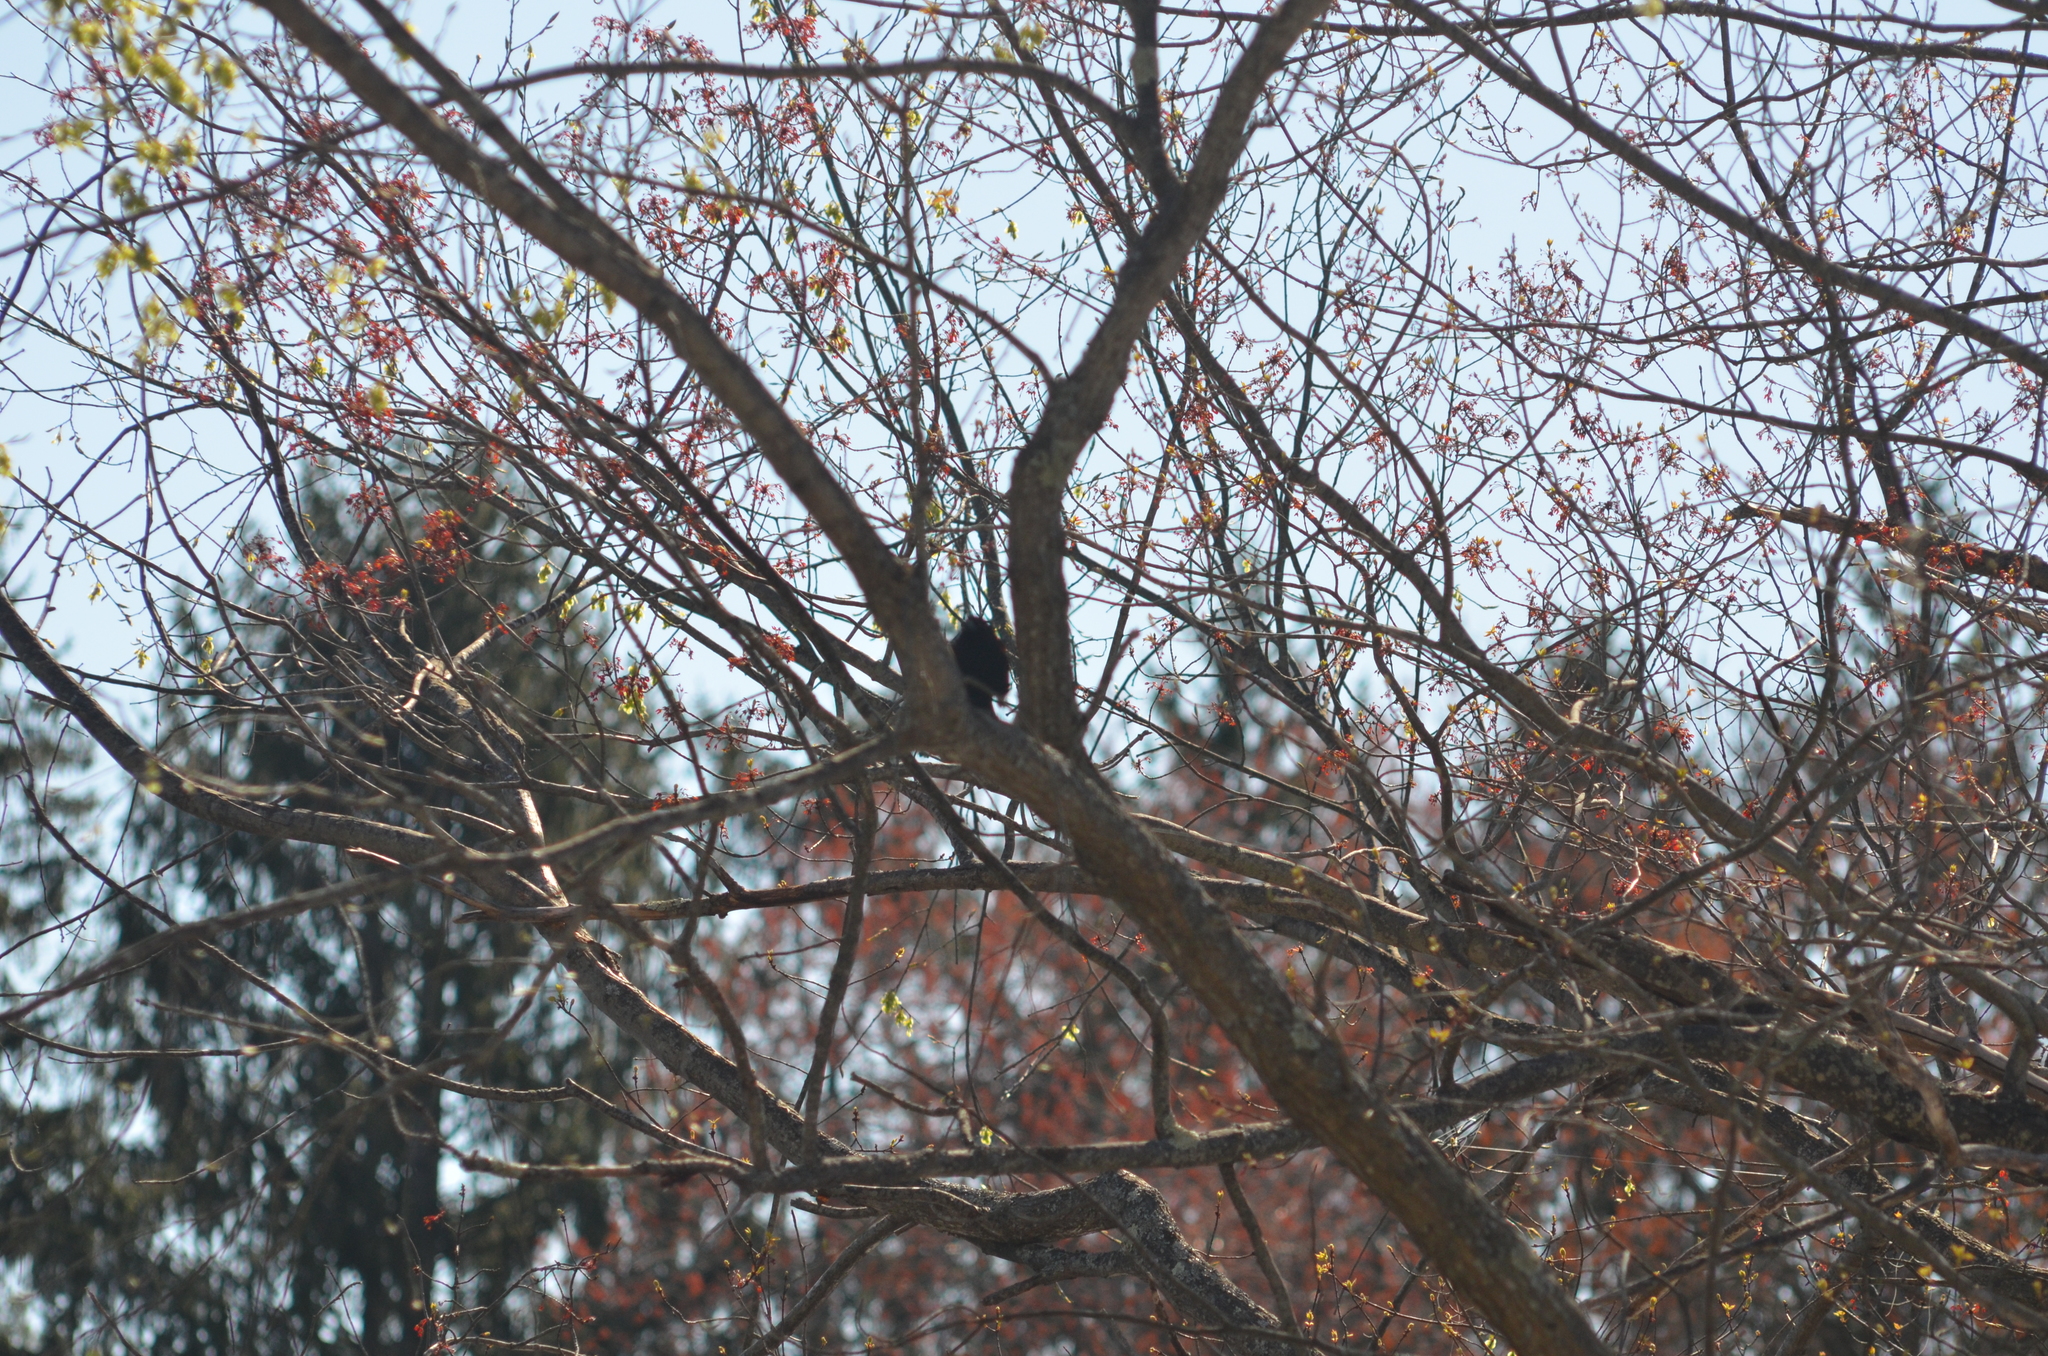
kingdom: Animalia
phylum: Chordata
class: Aves
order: Passeriformes
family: Sturnidae
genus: Sturnus
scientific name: Sturnus vulgaris
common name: Common starling
